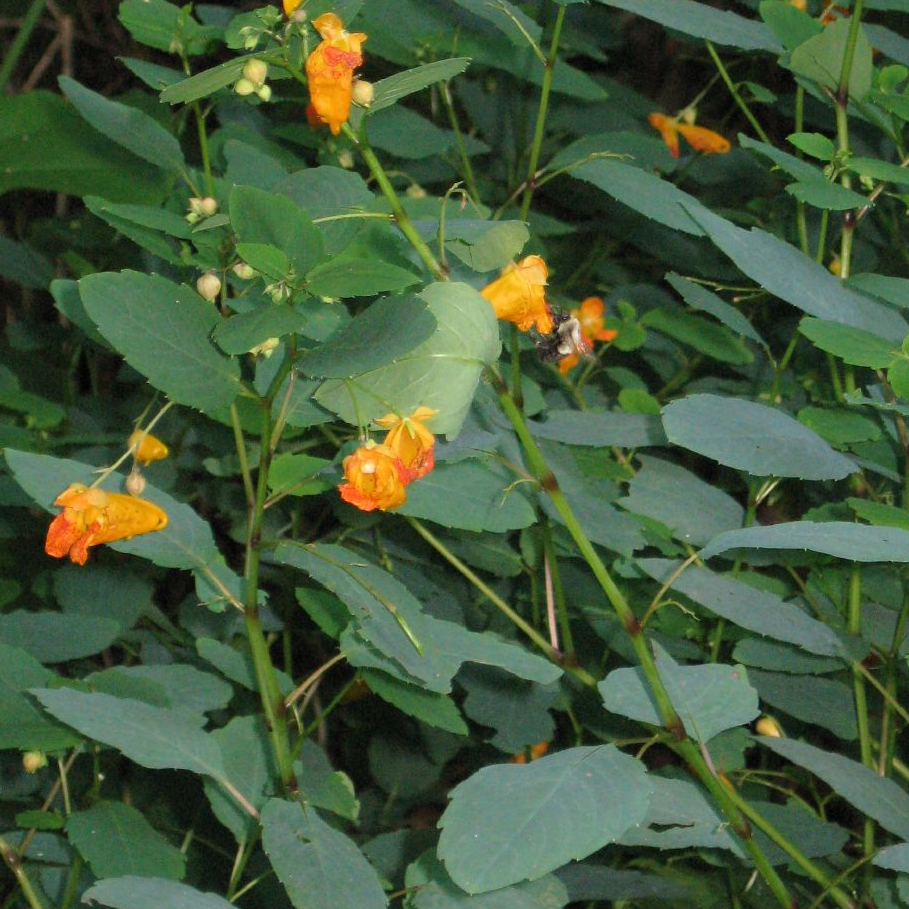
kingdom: Plantae
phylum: Tracheophyta
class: Magnoliopsida
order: Ericales
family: Balsaminaceae
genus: Impatiens
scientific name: Impatiens capensis
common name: Orange balsam
